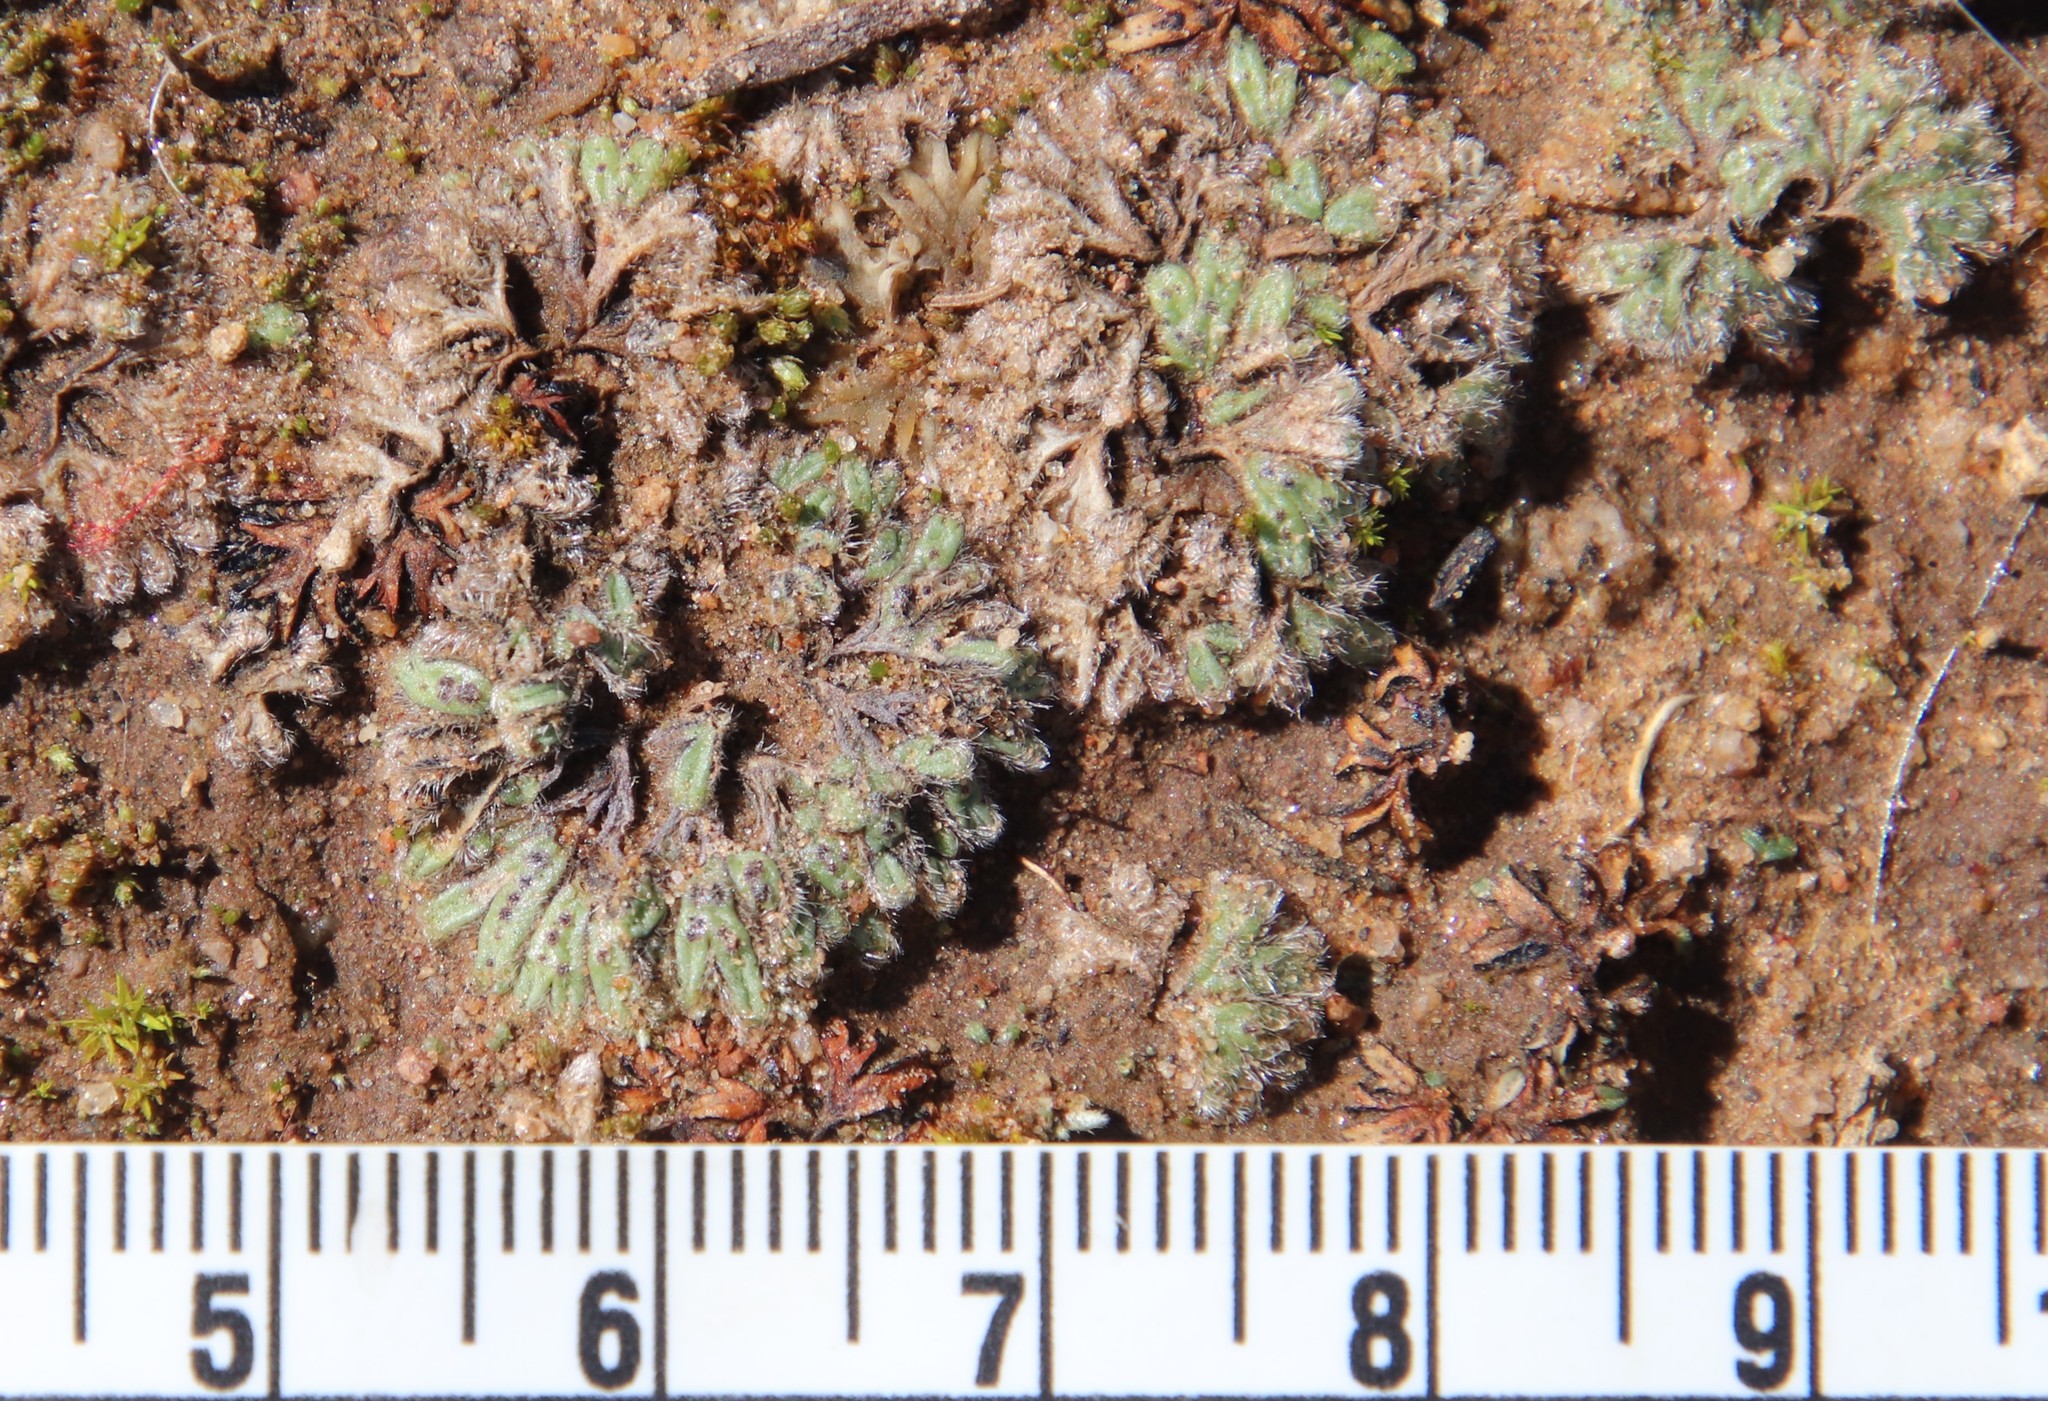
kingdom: Plantae
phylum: Marchantiophyta
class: Marchantiopsida
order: Marchantiales
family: Ricciaceae
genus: Riccia
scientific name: Riccia trichocarpa
